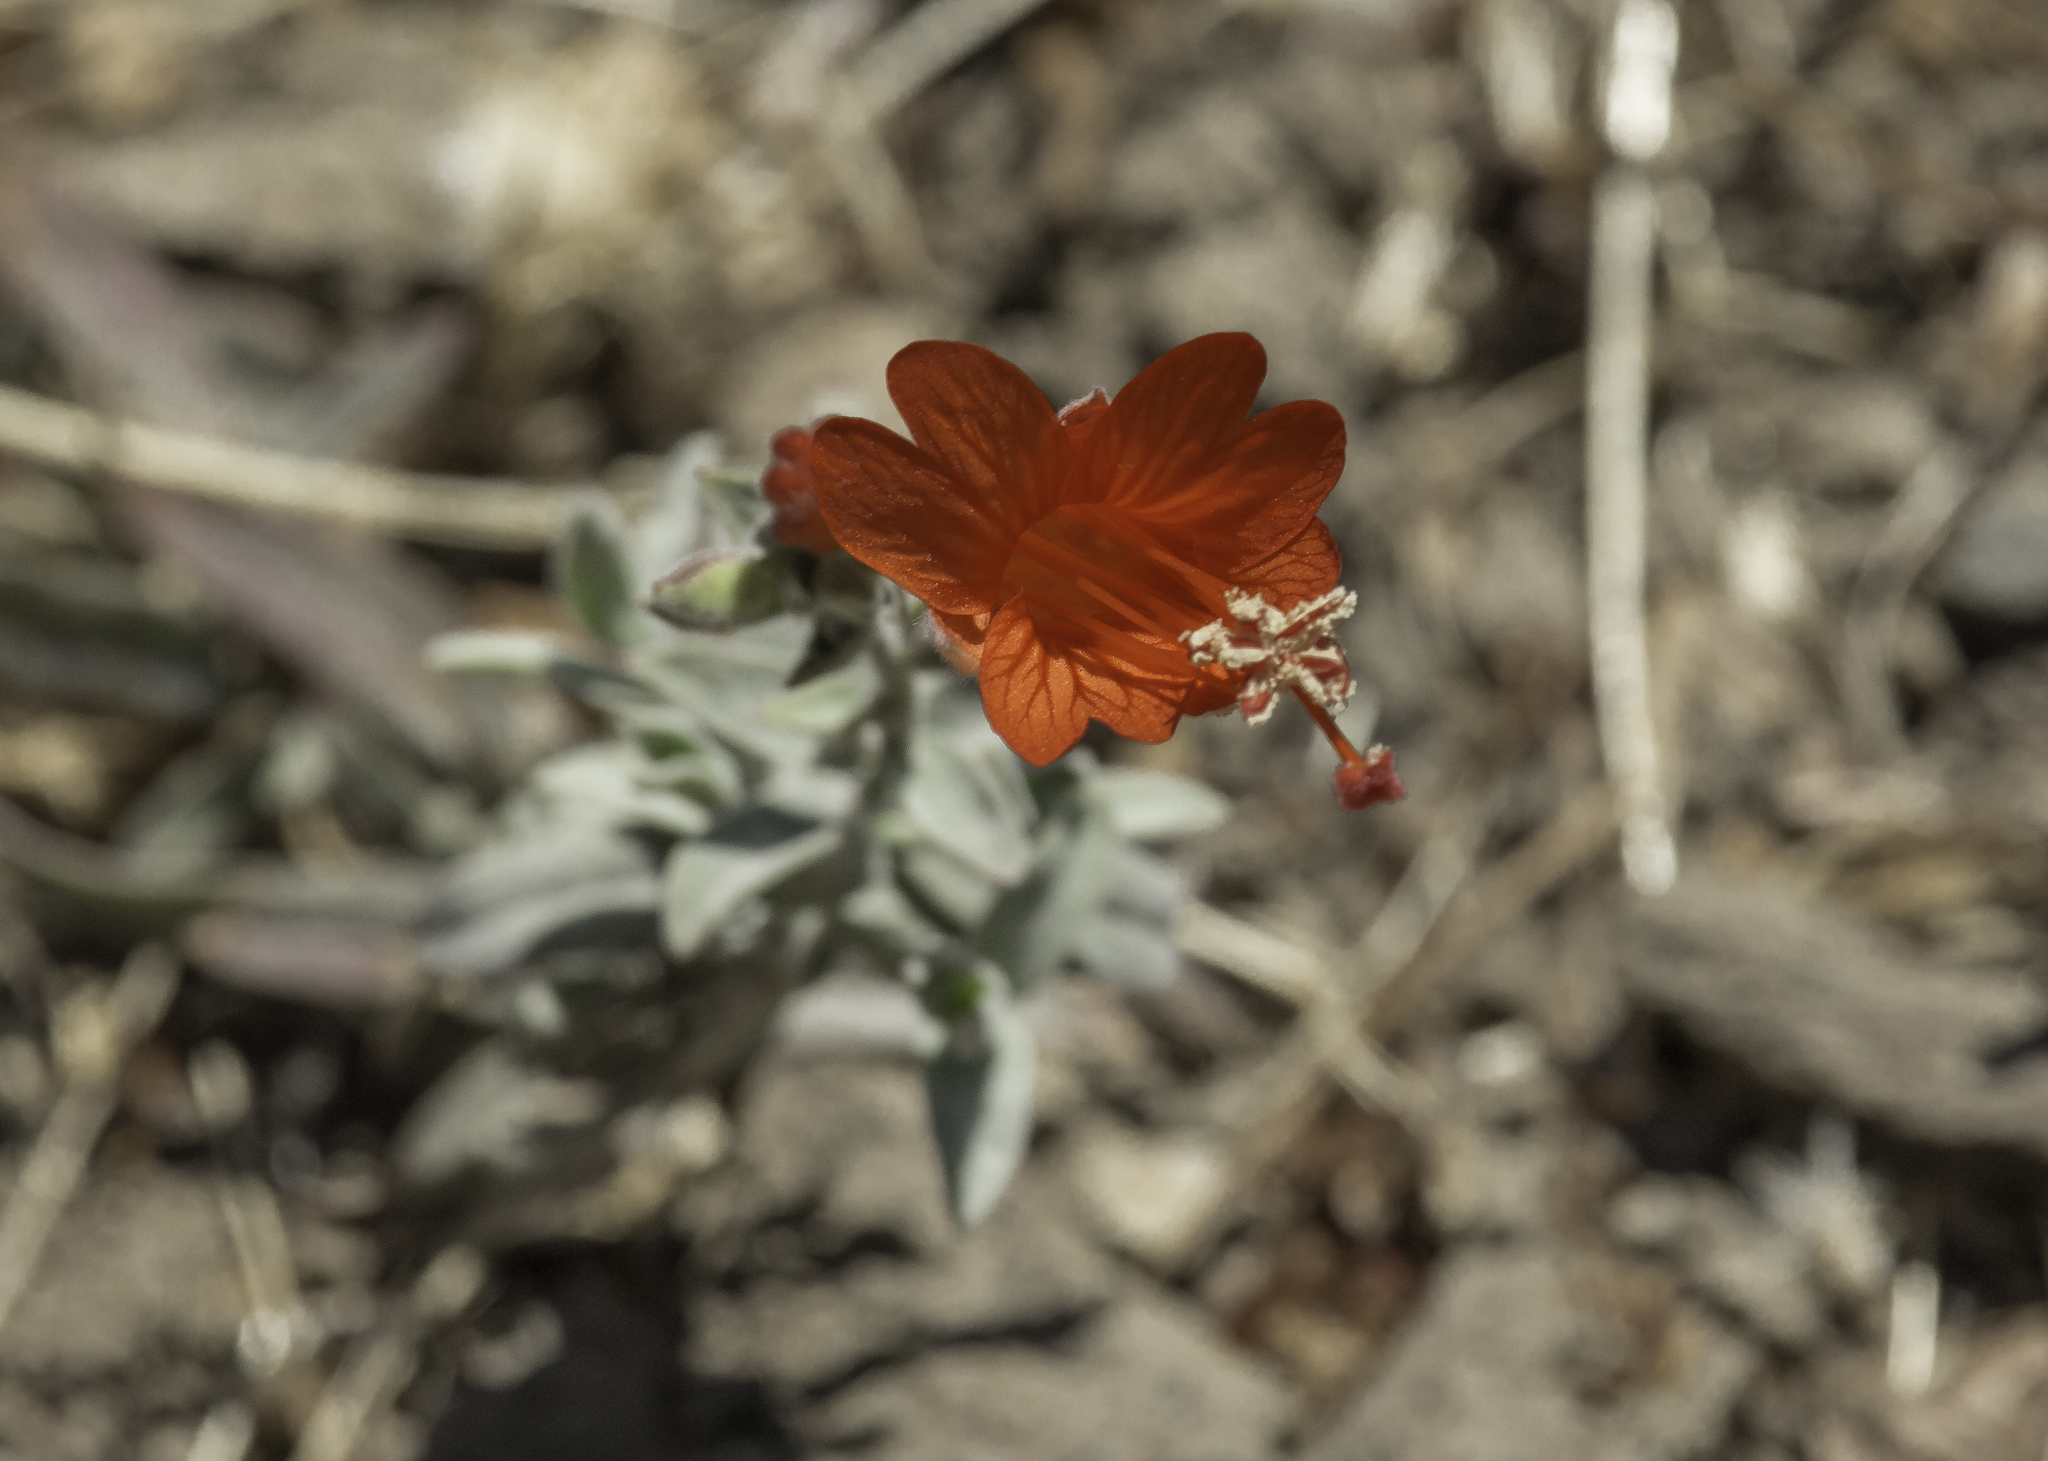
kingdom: Plantae
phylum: Tracheophyta
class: Magnoliopsida
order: Myrtales
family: Onagraceae
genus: Epilobium
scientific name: Epilobium canum
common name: California-fuchsia
